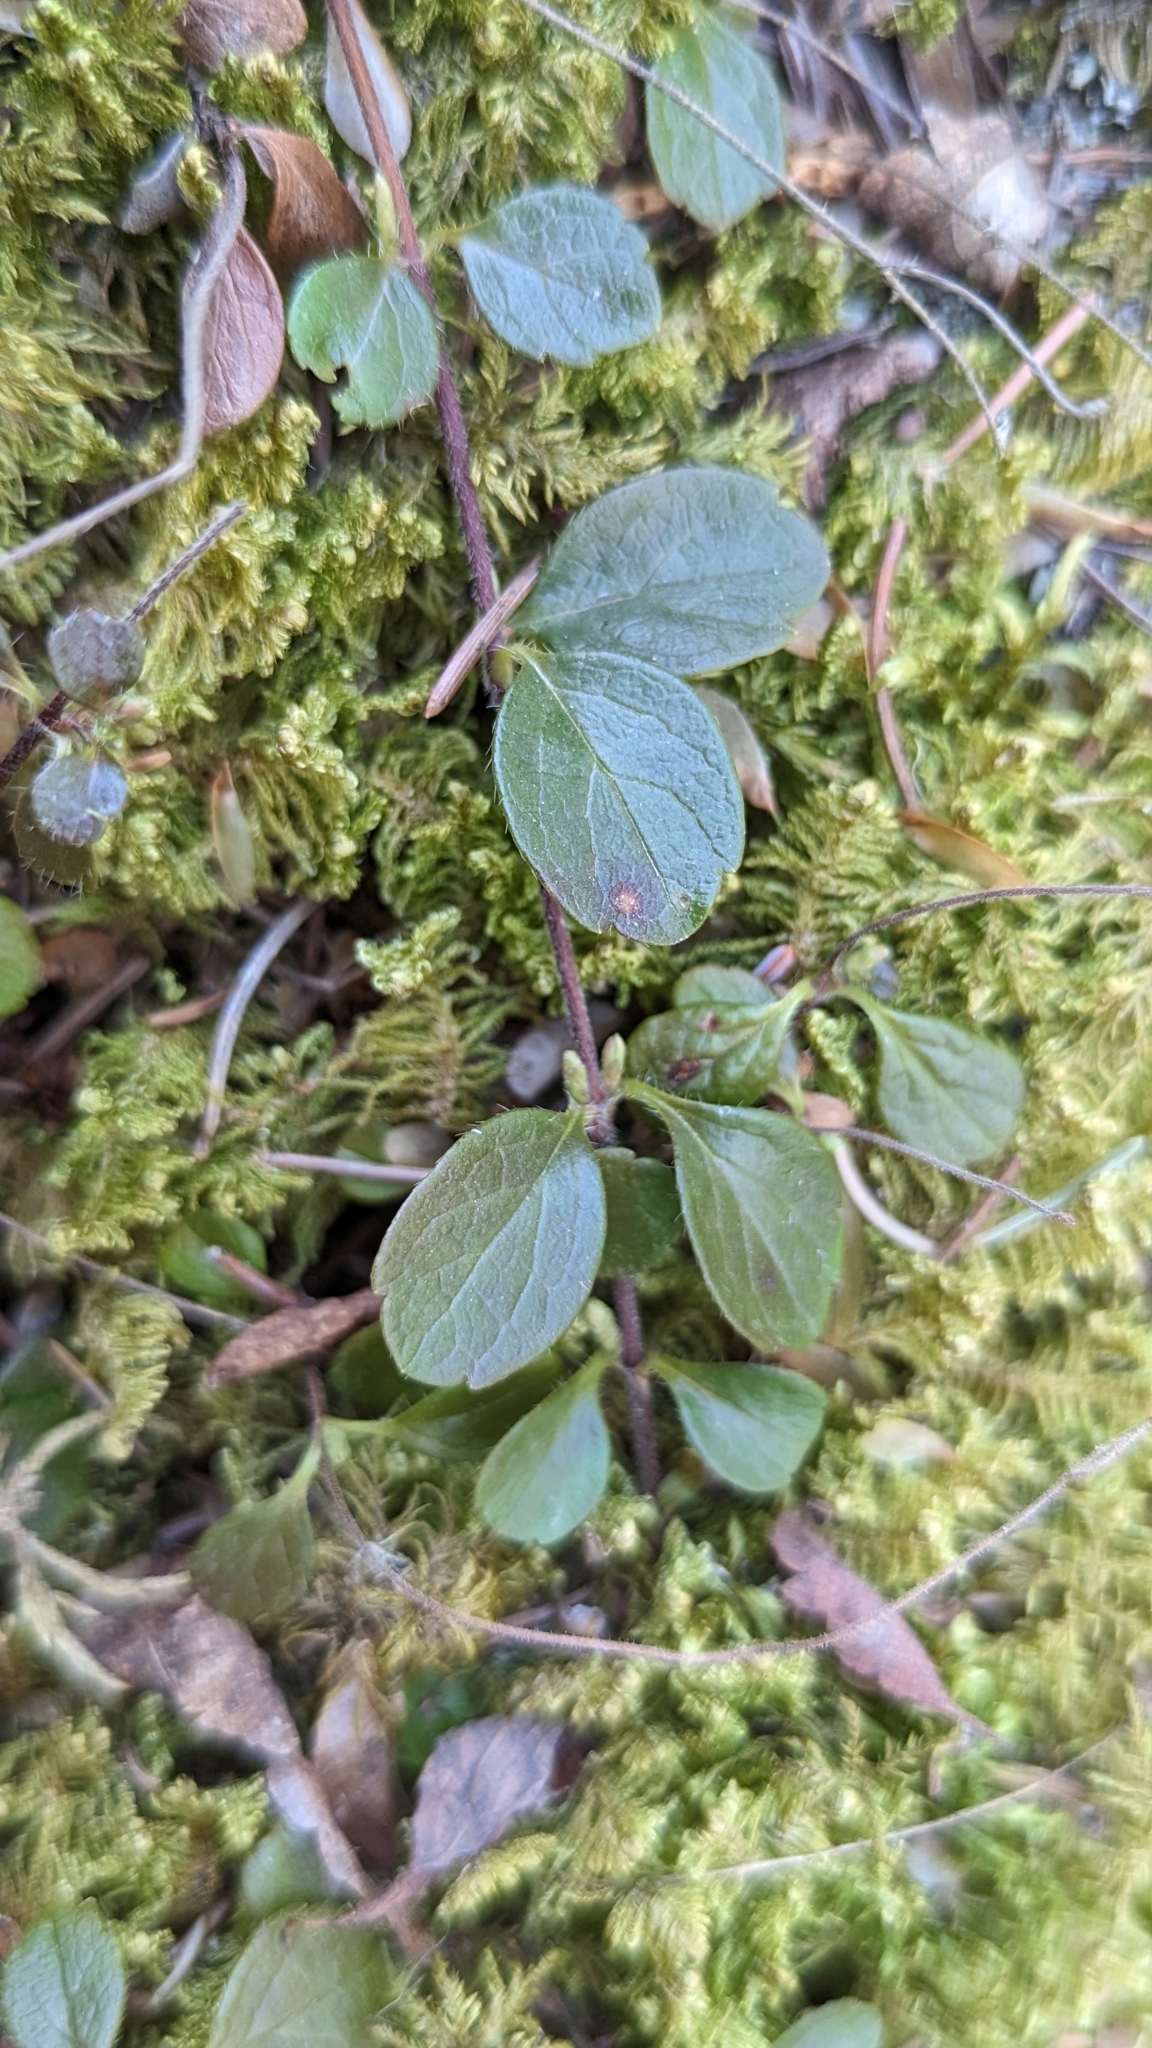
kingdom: Plantae
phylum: Tracheophyta
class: Magnoliopsida
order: Dipsacales
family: Caprifoliaceae
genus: Linnaea
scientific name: Linnaea borealis
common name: Twinflower
